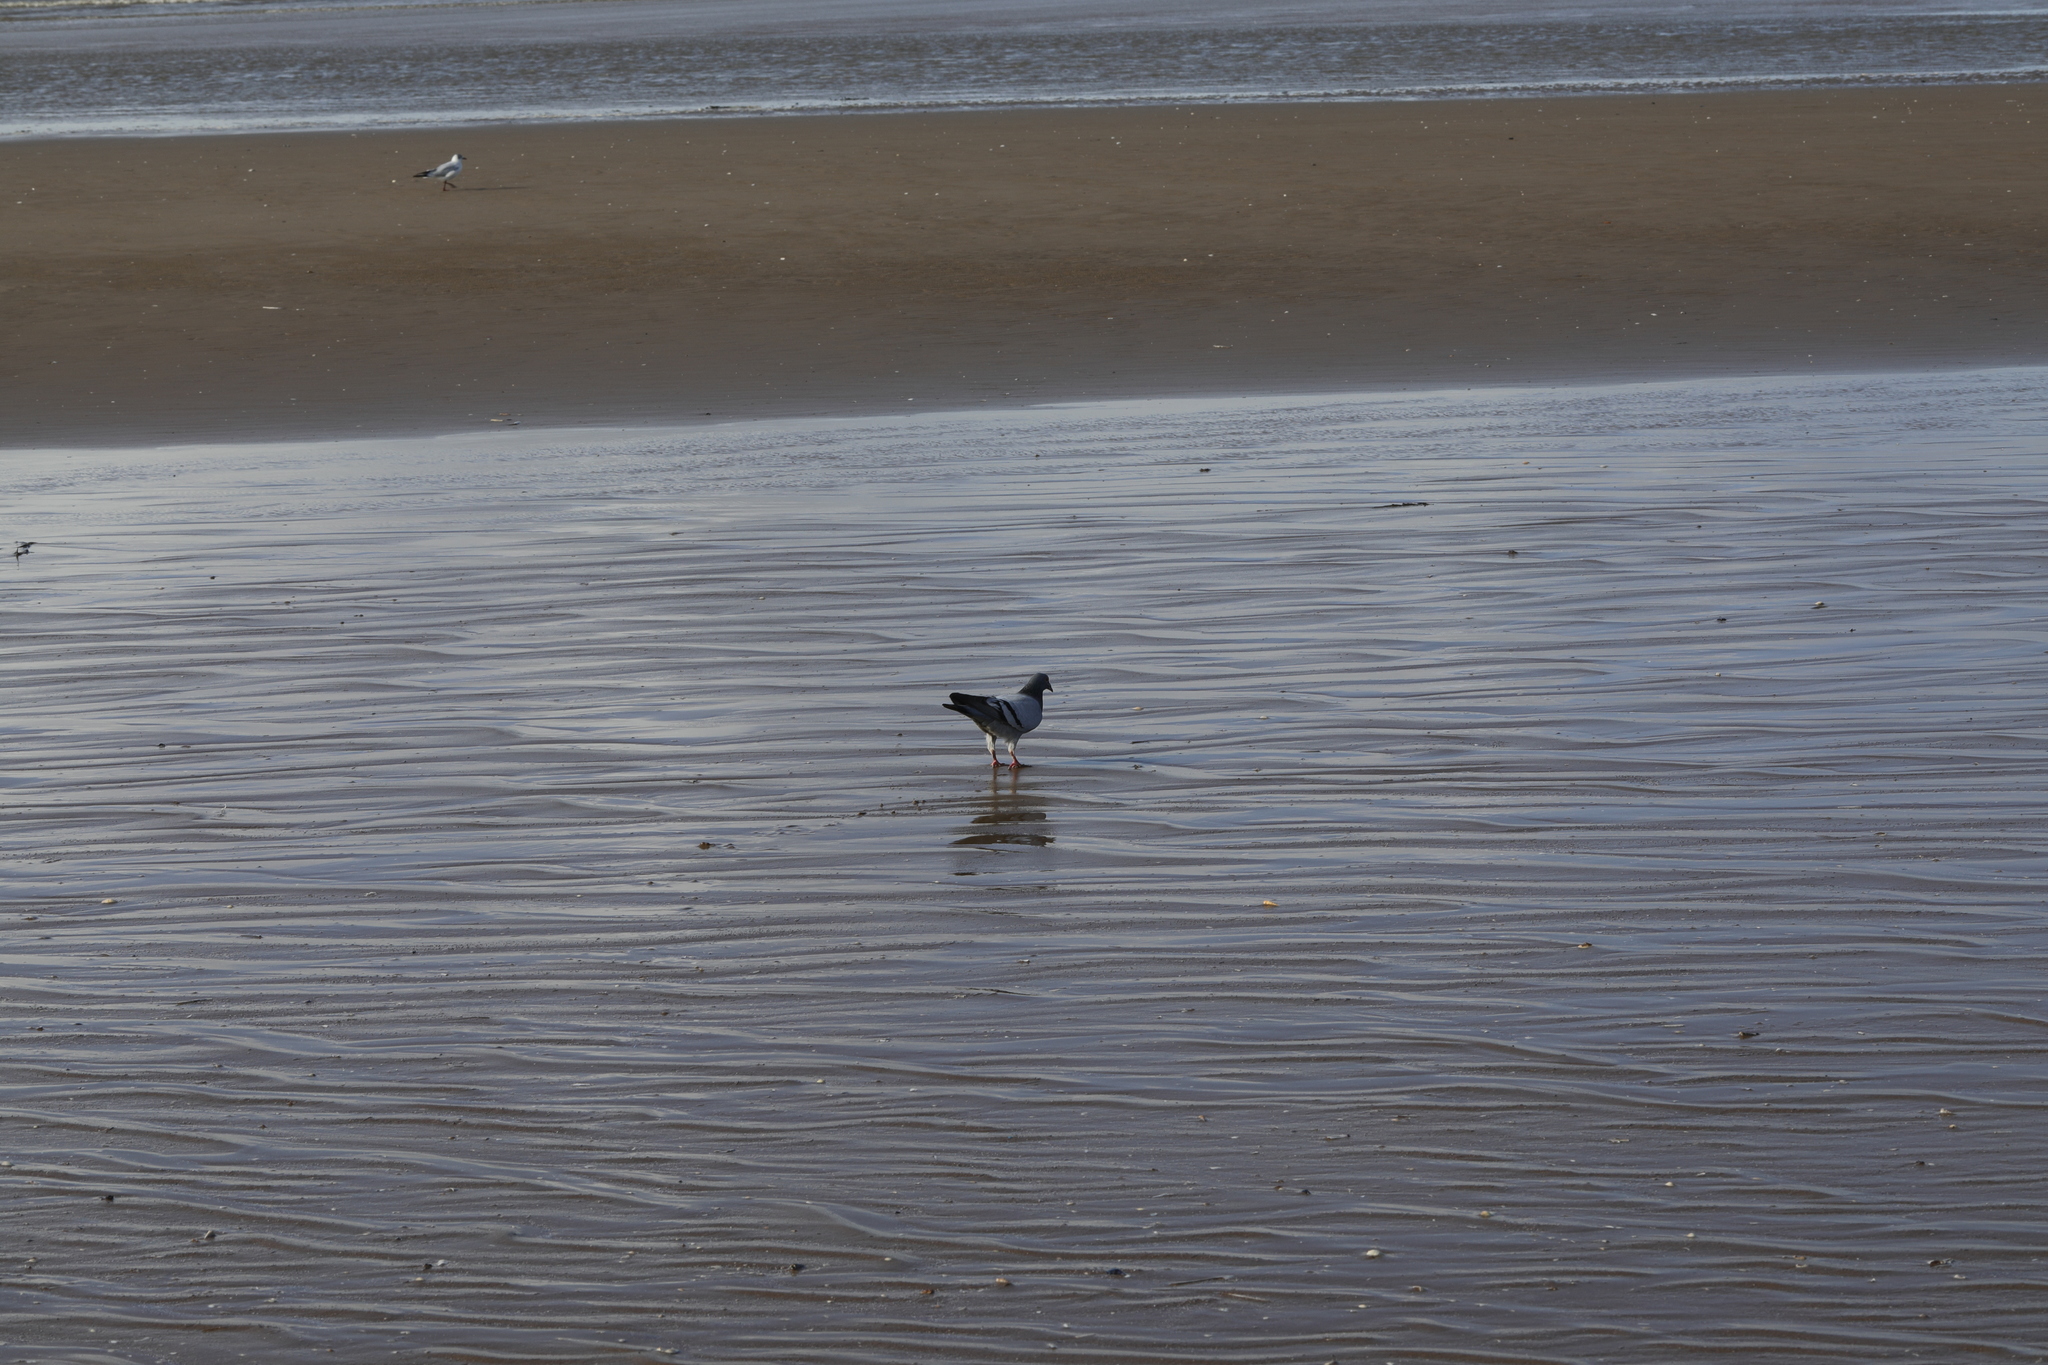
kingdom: Animalia
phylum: Chordata
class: Aves
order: Columbiformes
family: Columbidae
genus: Columba
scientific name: Columba livia
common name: Rock pigeon
